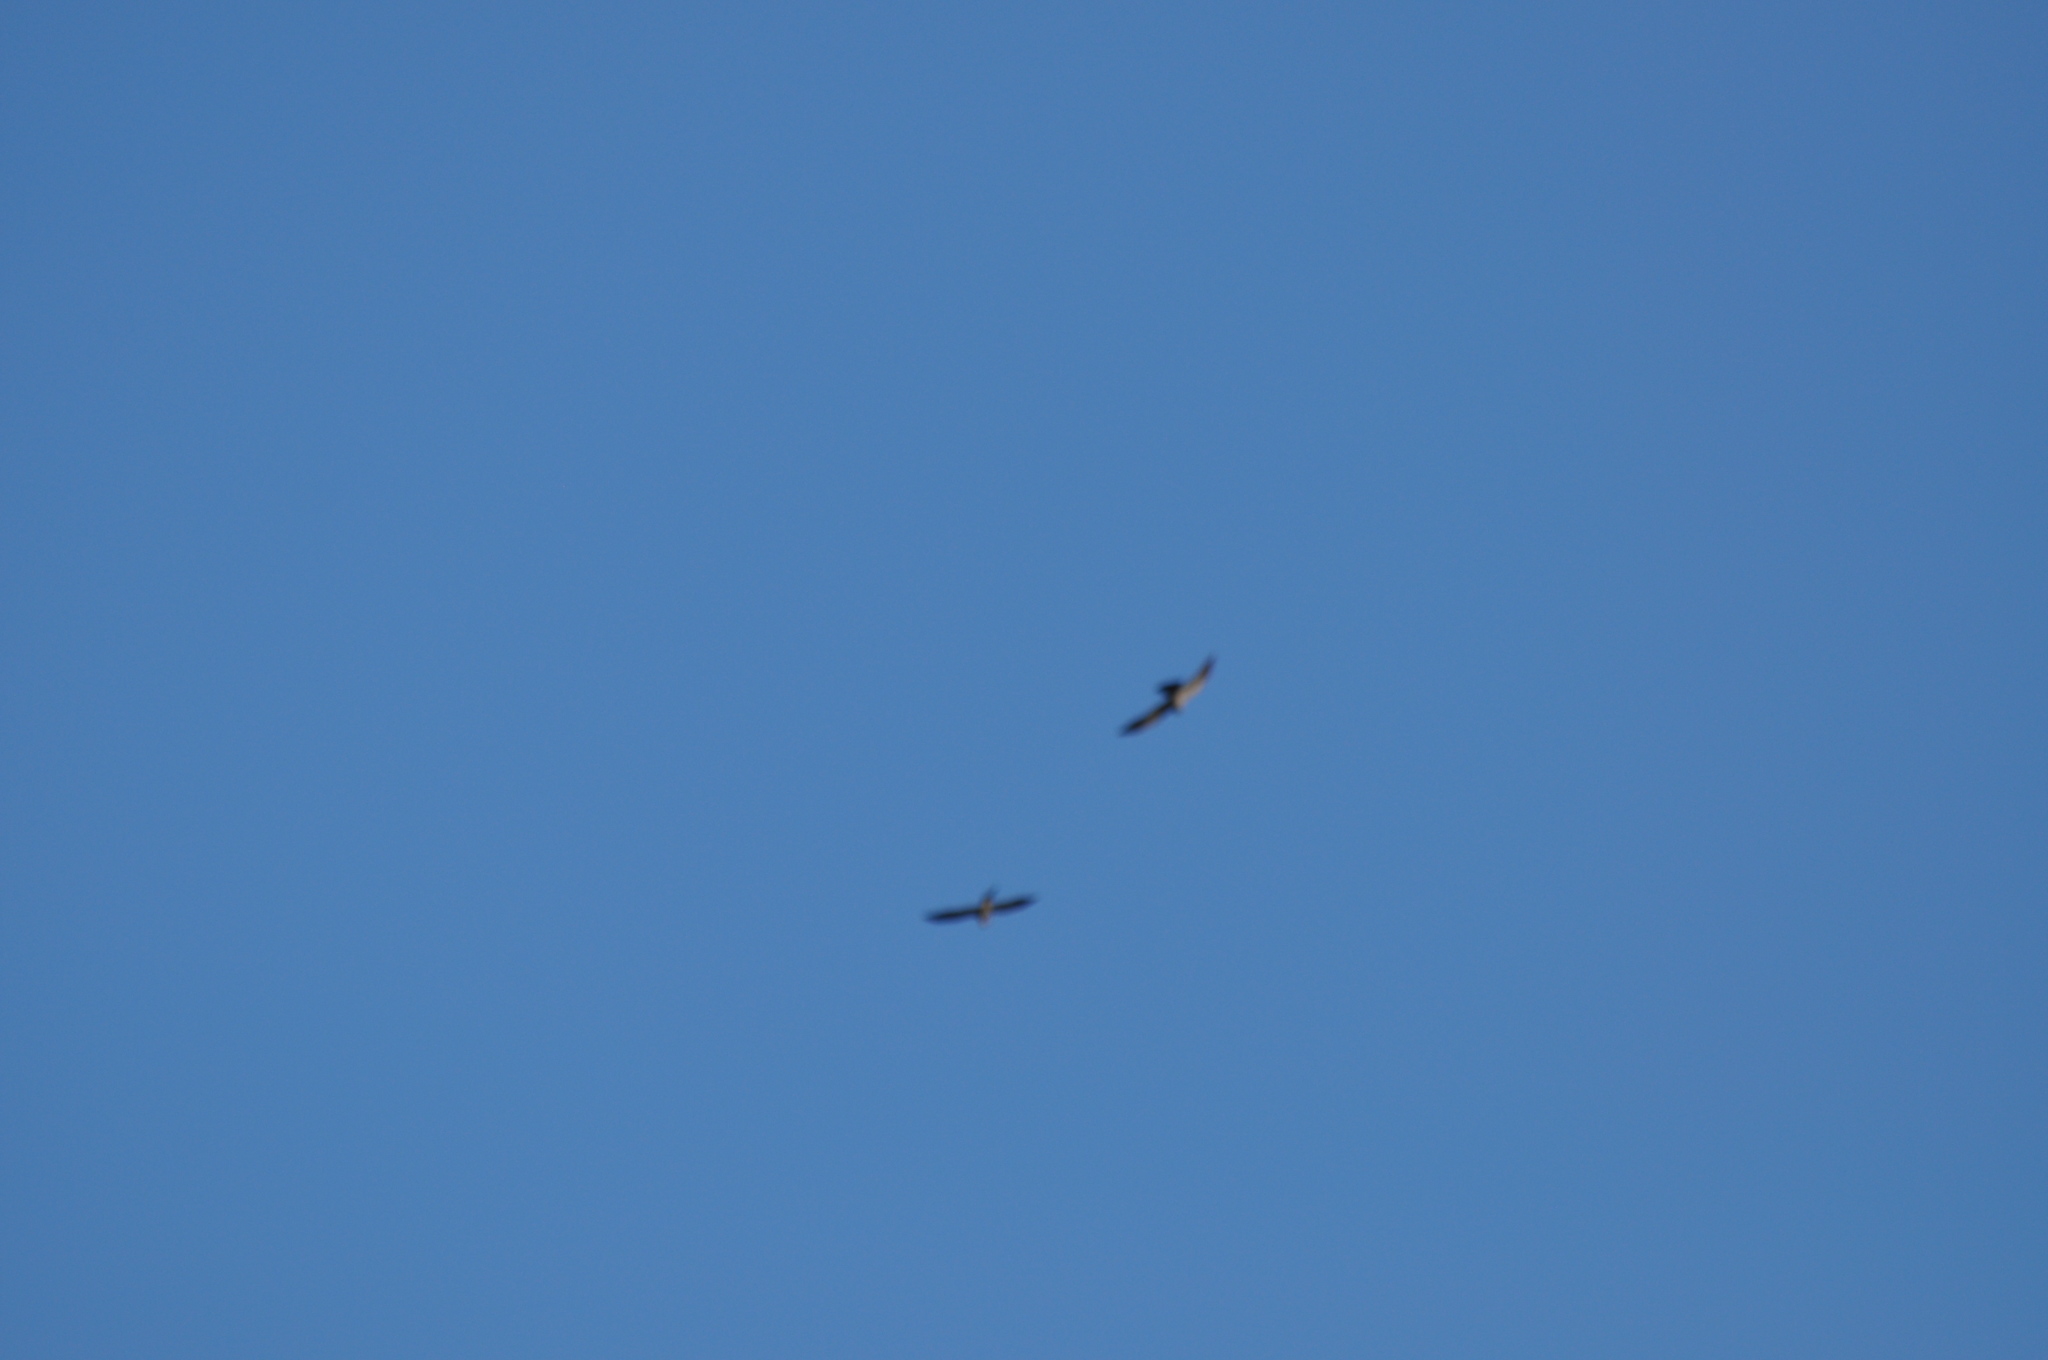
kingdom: Animalia
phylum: Chordata
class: Aves
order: Accipitriformes
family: Accipitridae
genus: Ictinia
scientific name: Ictinia mississippiensis
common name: Mississippi kite
